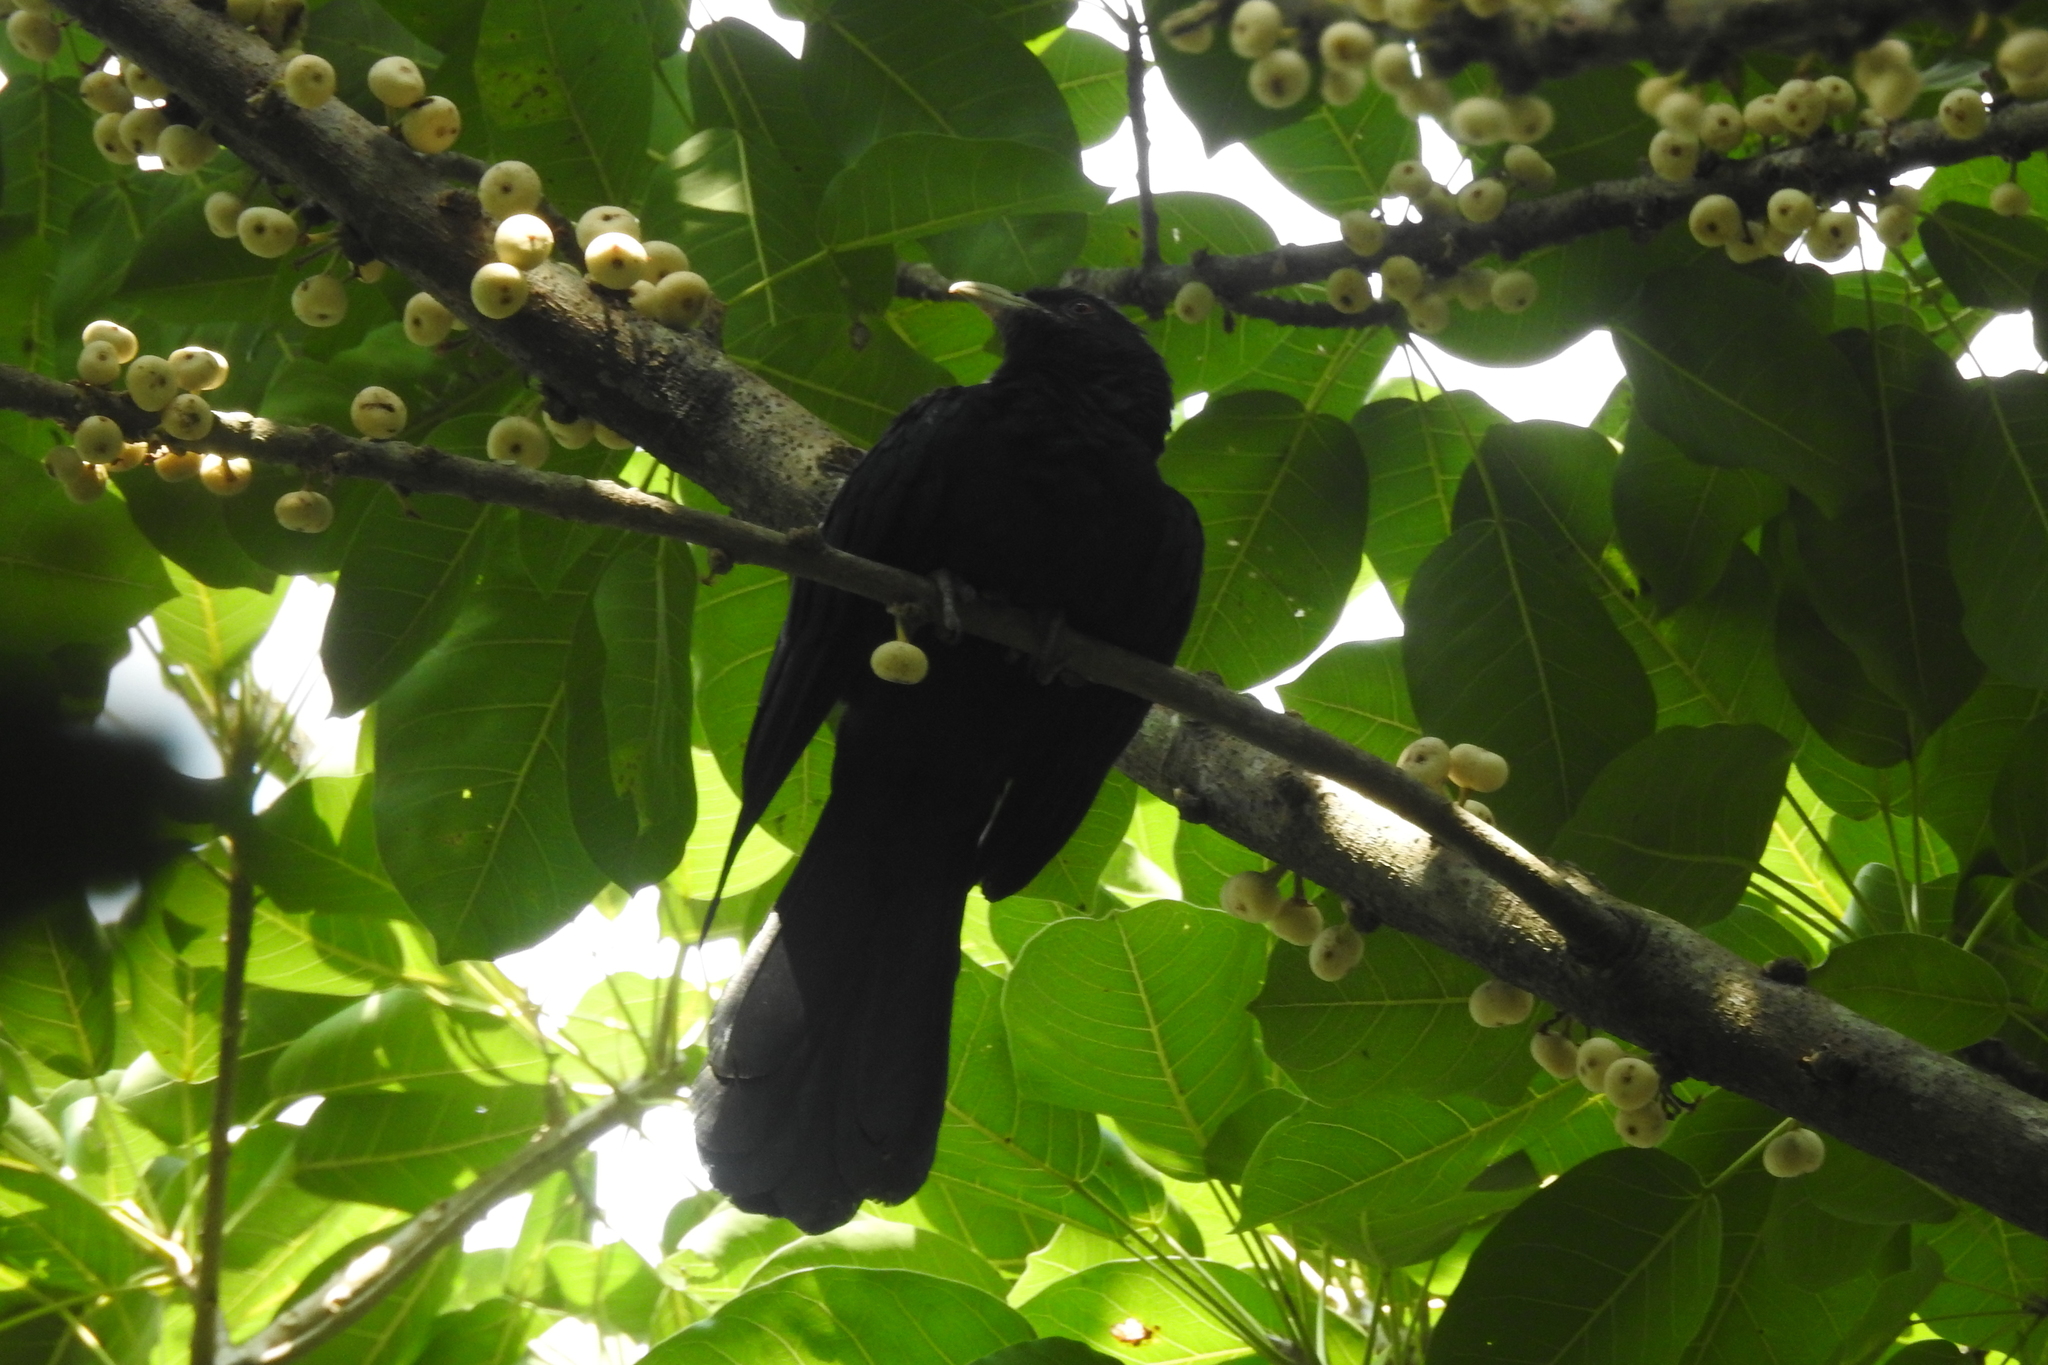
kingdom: Animalia
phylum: Chordata
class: Aves
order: Cuculiformes
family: Cuculidae
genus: Eudynamys
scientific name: Eudynamys scolopaceus
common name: Asian koel
